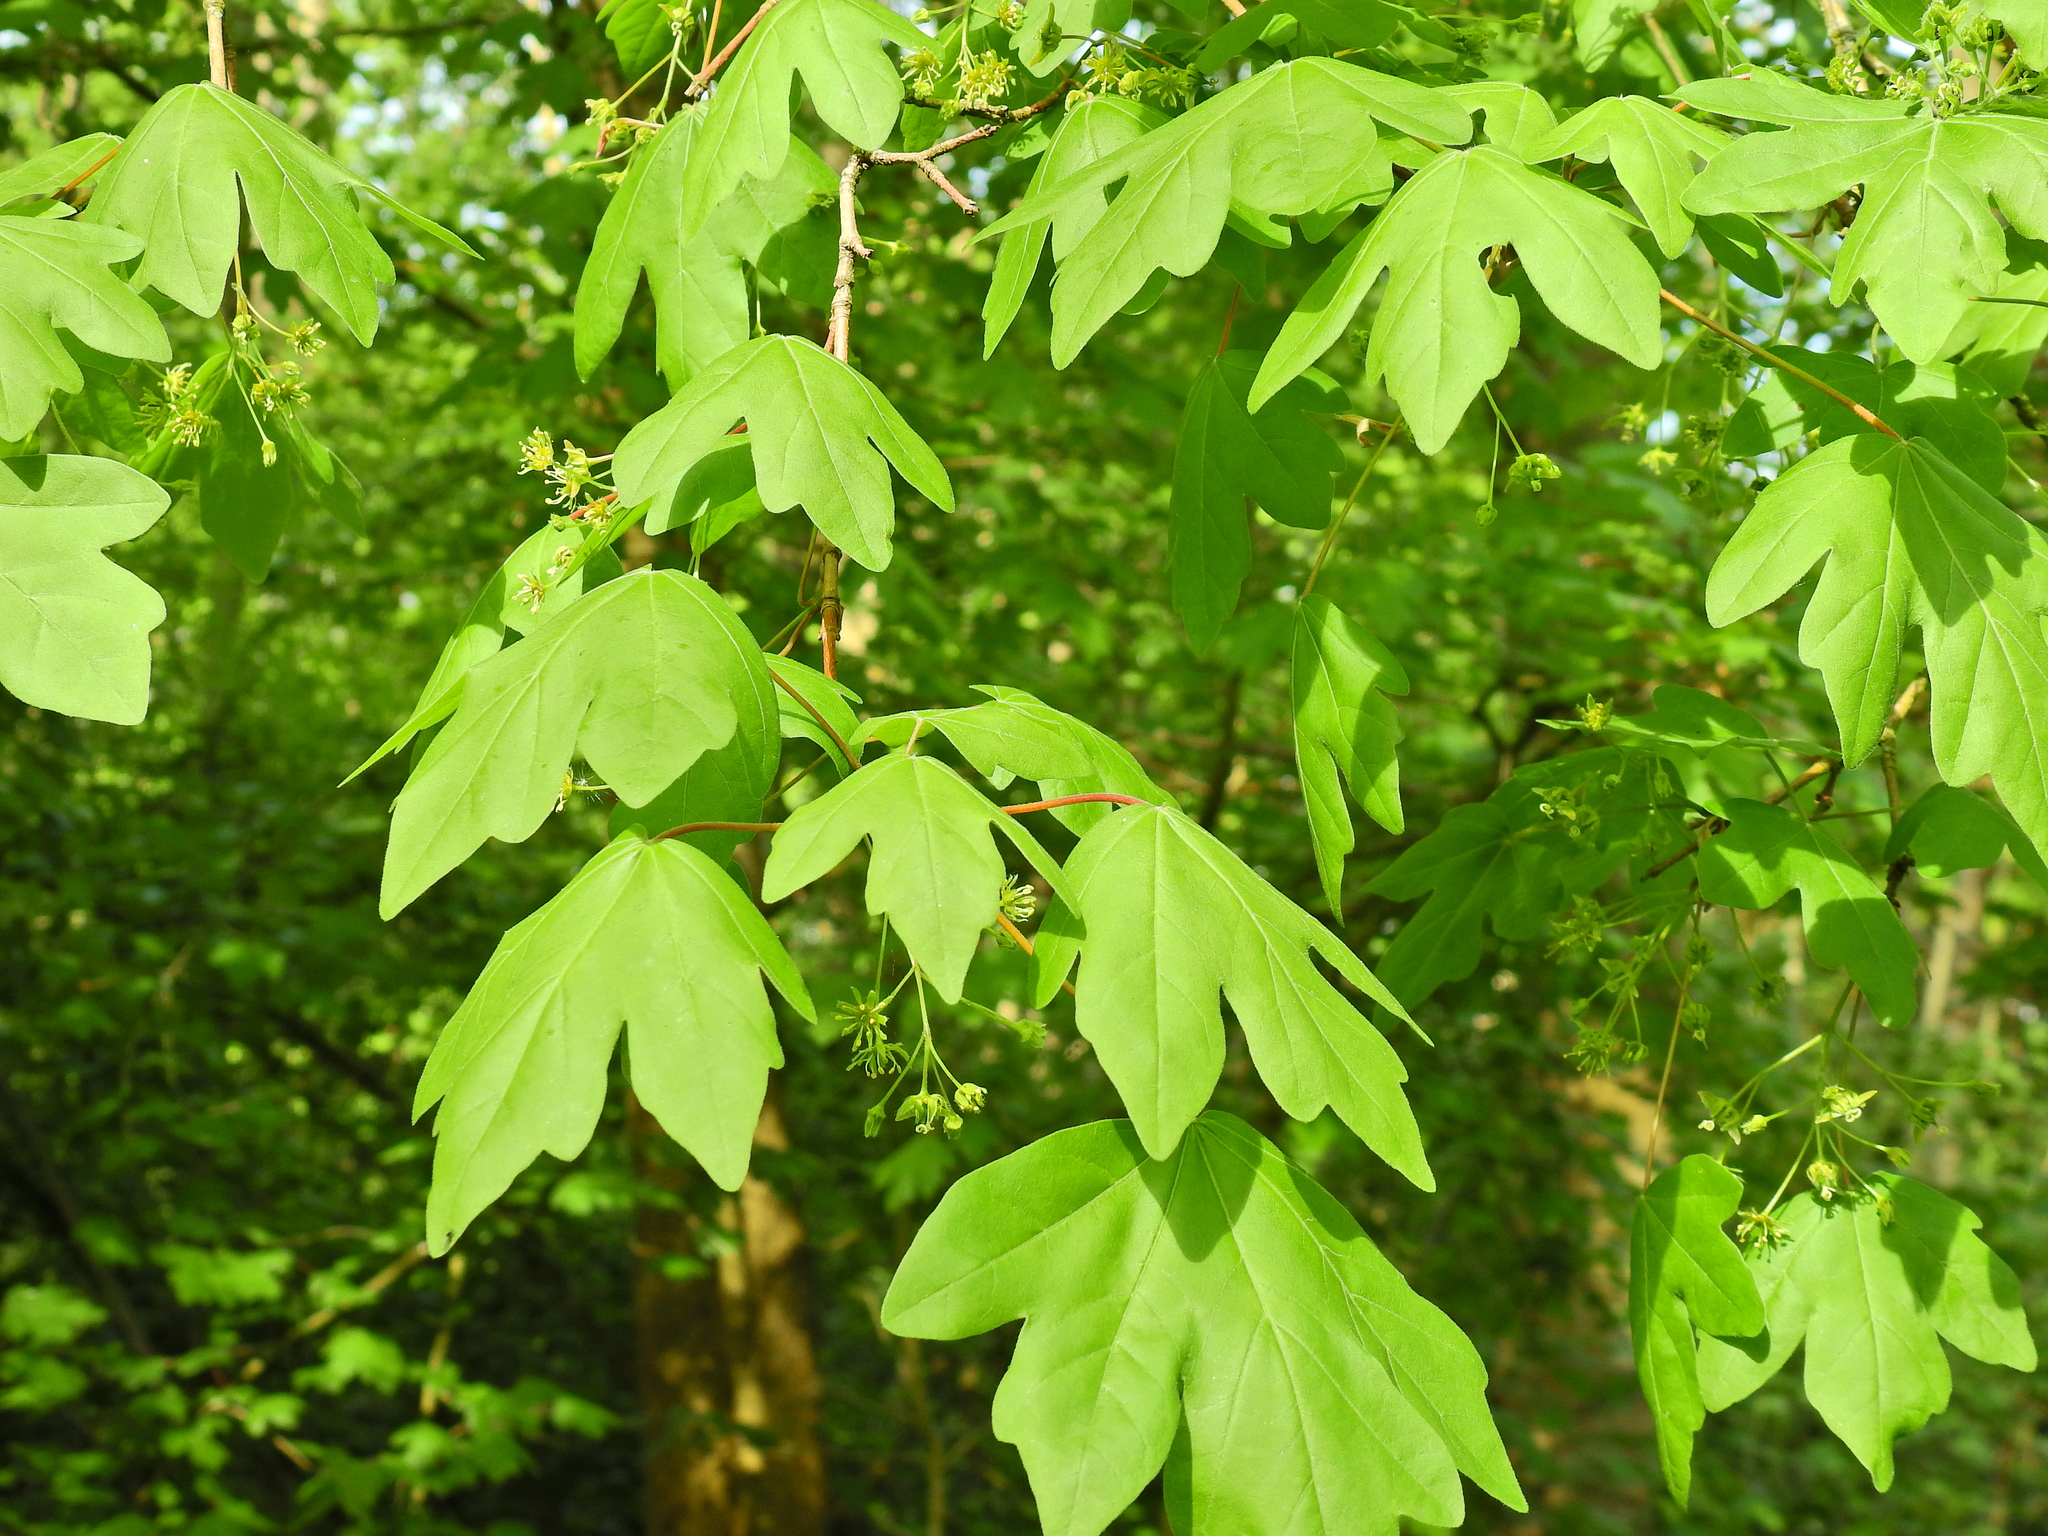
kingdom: Plantae
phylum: Tracheophyta
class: Magnoliopsida
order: Sapindales
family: Sapindaceae
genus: Acer
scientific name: Acer campestre
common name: Field maple
